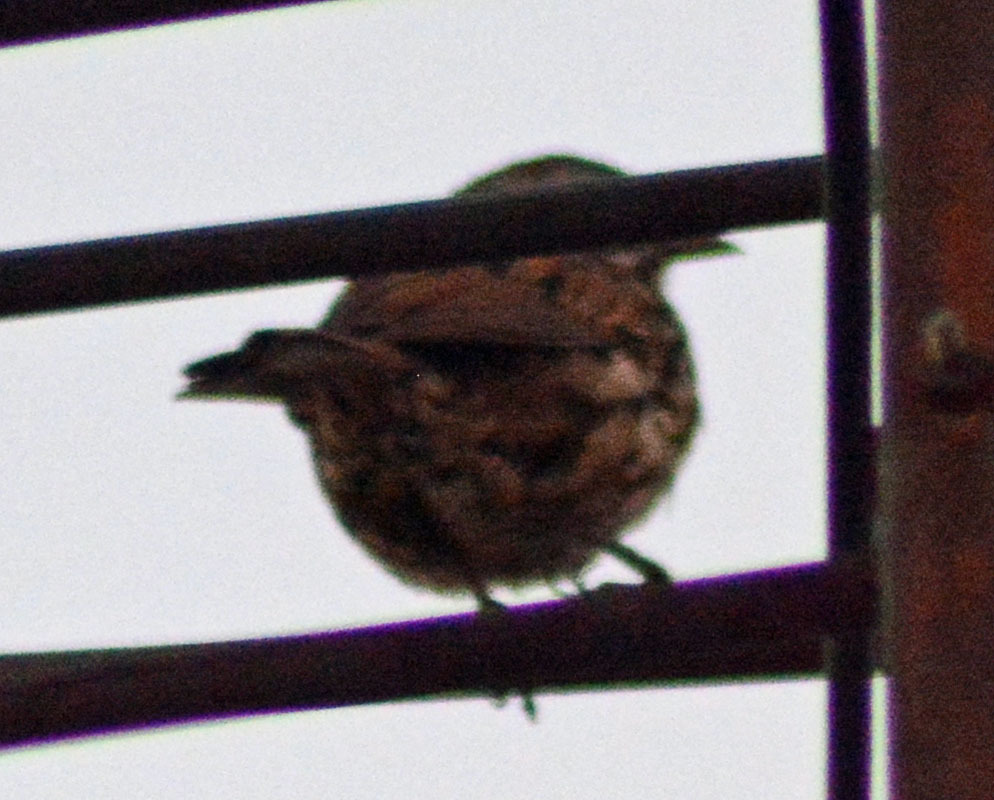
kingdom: Animalia
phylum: Chordata
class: Aves
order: Passeriformes
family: Passerellidae
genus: Melospiza
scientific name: Melospiza melodia
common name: Song sparrow
